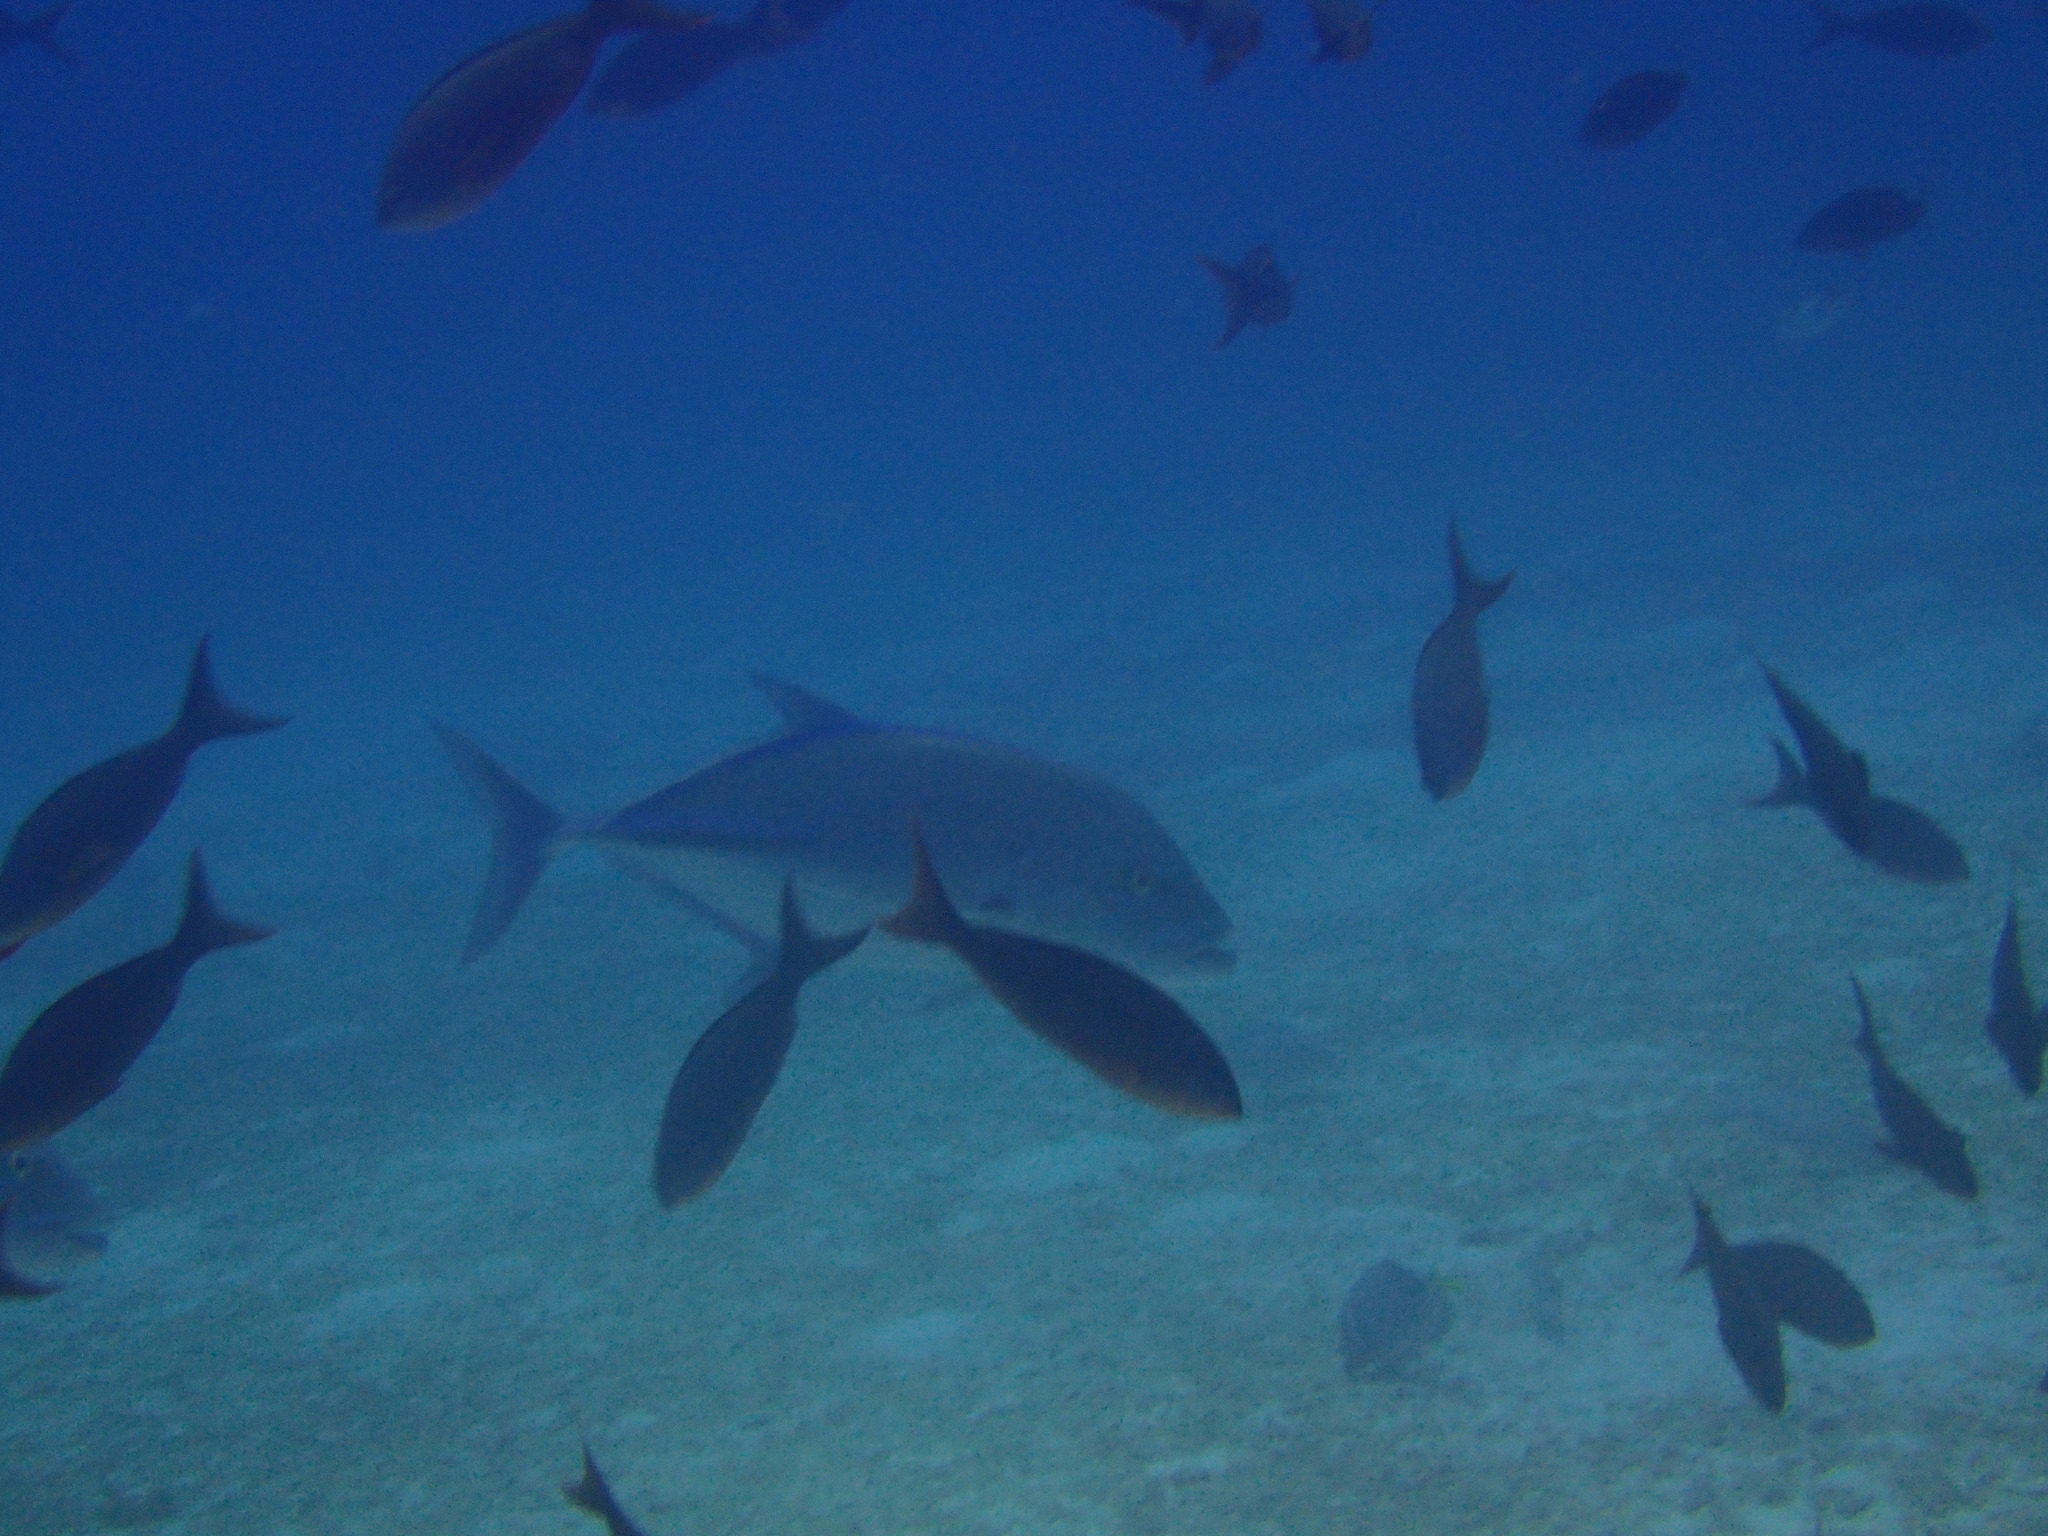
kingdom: Animalia
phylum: Chordata
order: Perciformes
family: Carangidae
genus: Caranx
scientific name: Caranx melampygus
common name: Bluefin trevally
